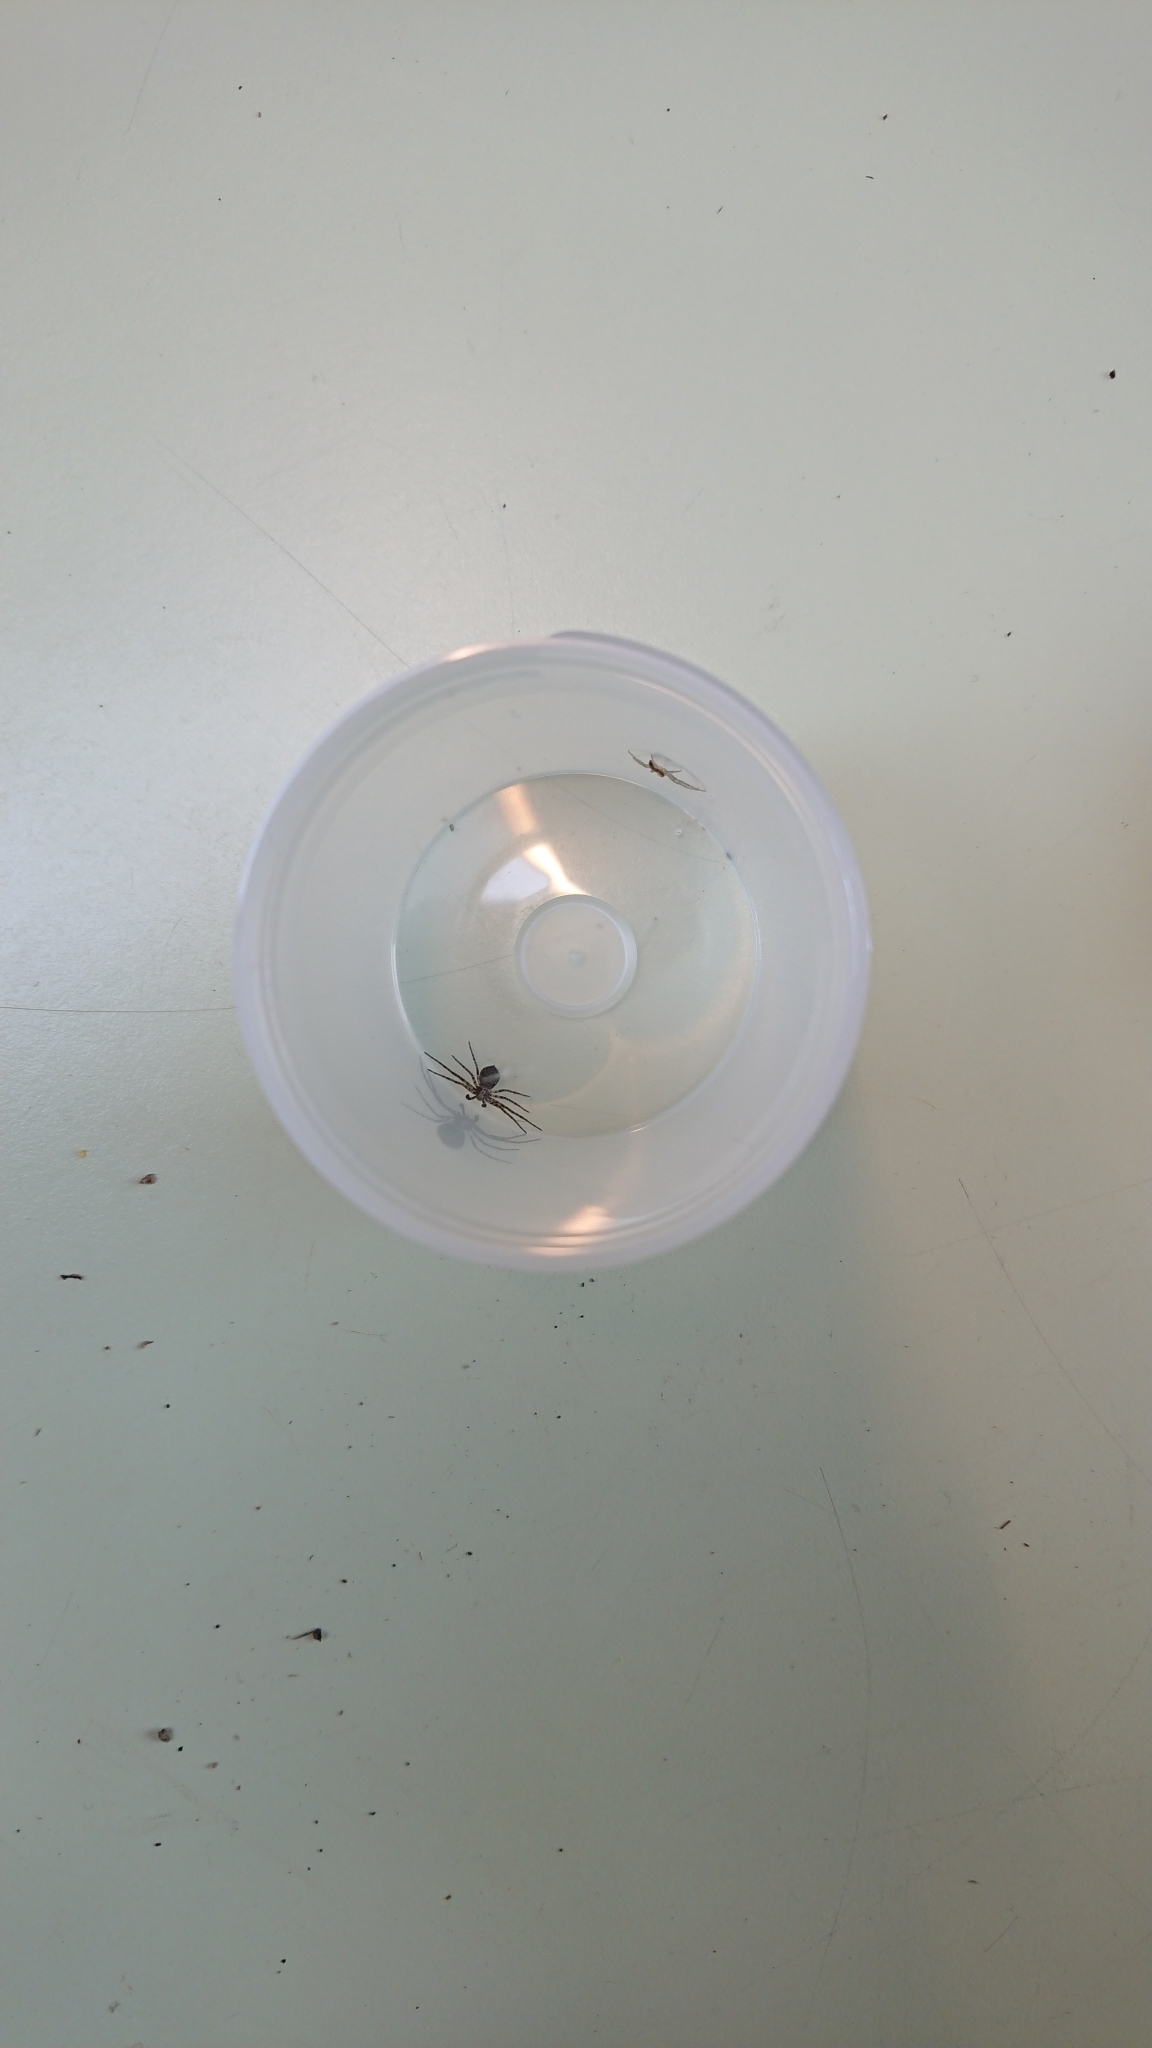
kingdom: Animalia
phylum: Arthropoda
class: Arachnida
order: Araneae
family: Philodromidae
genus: Philodromus
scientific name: Philodromus
